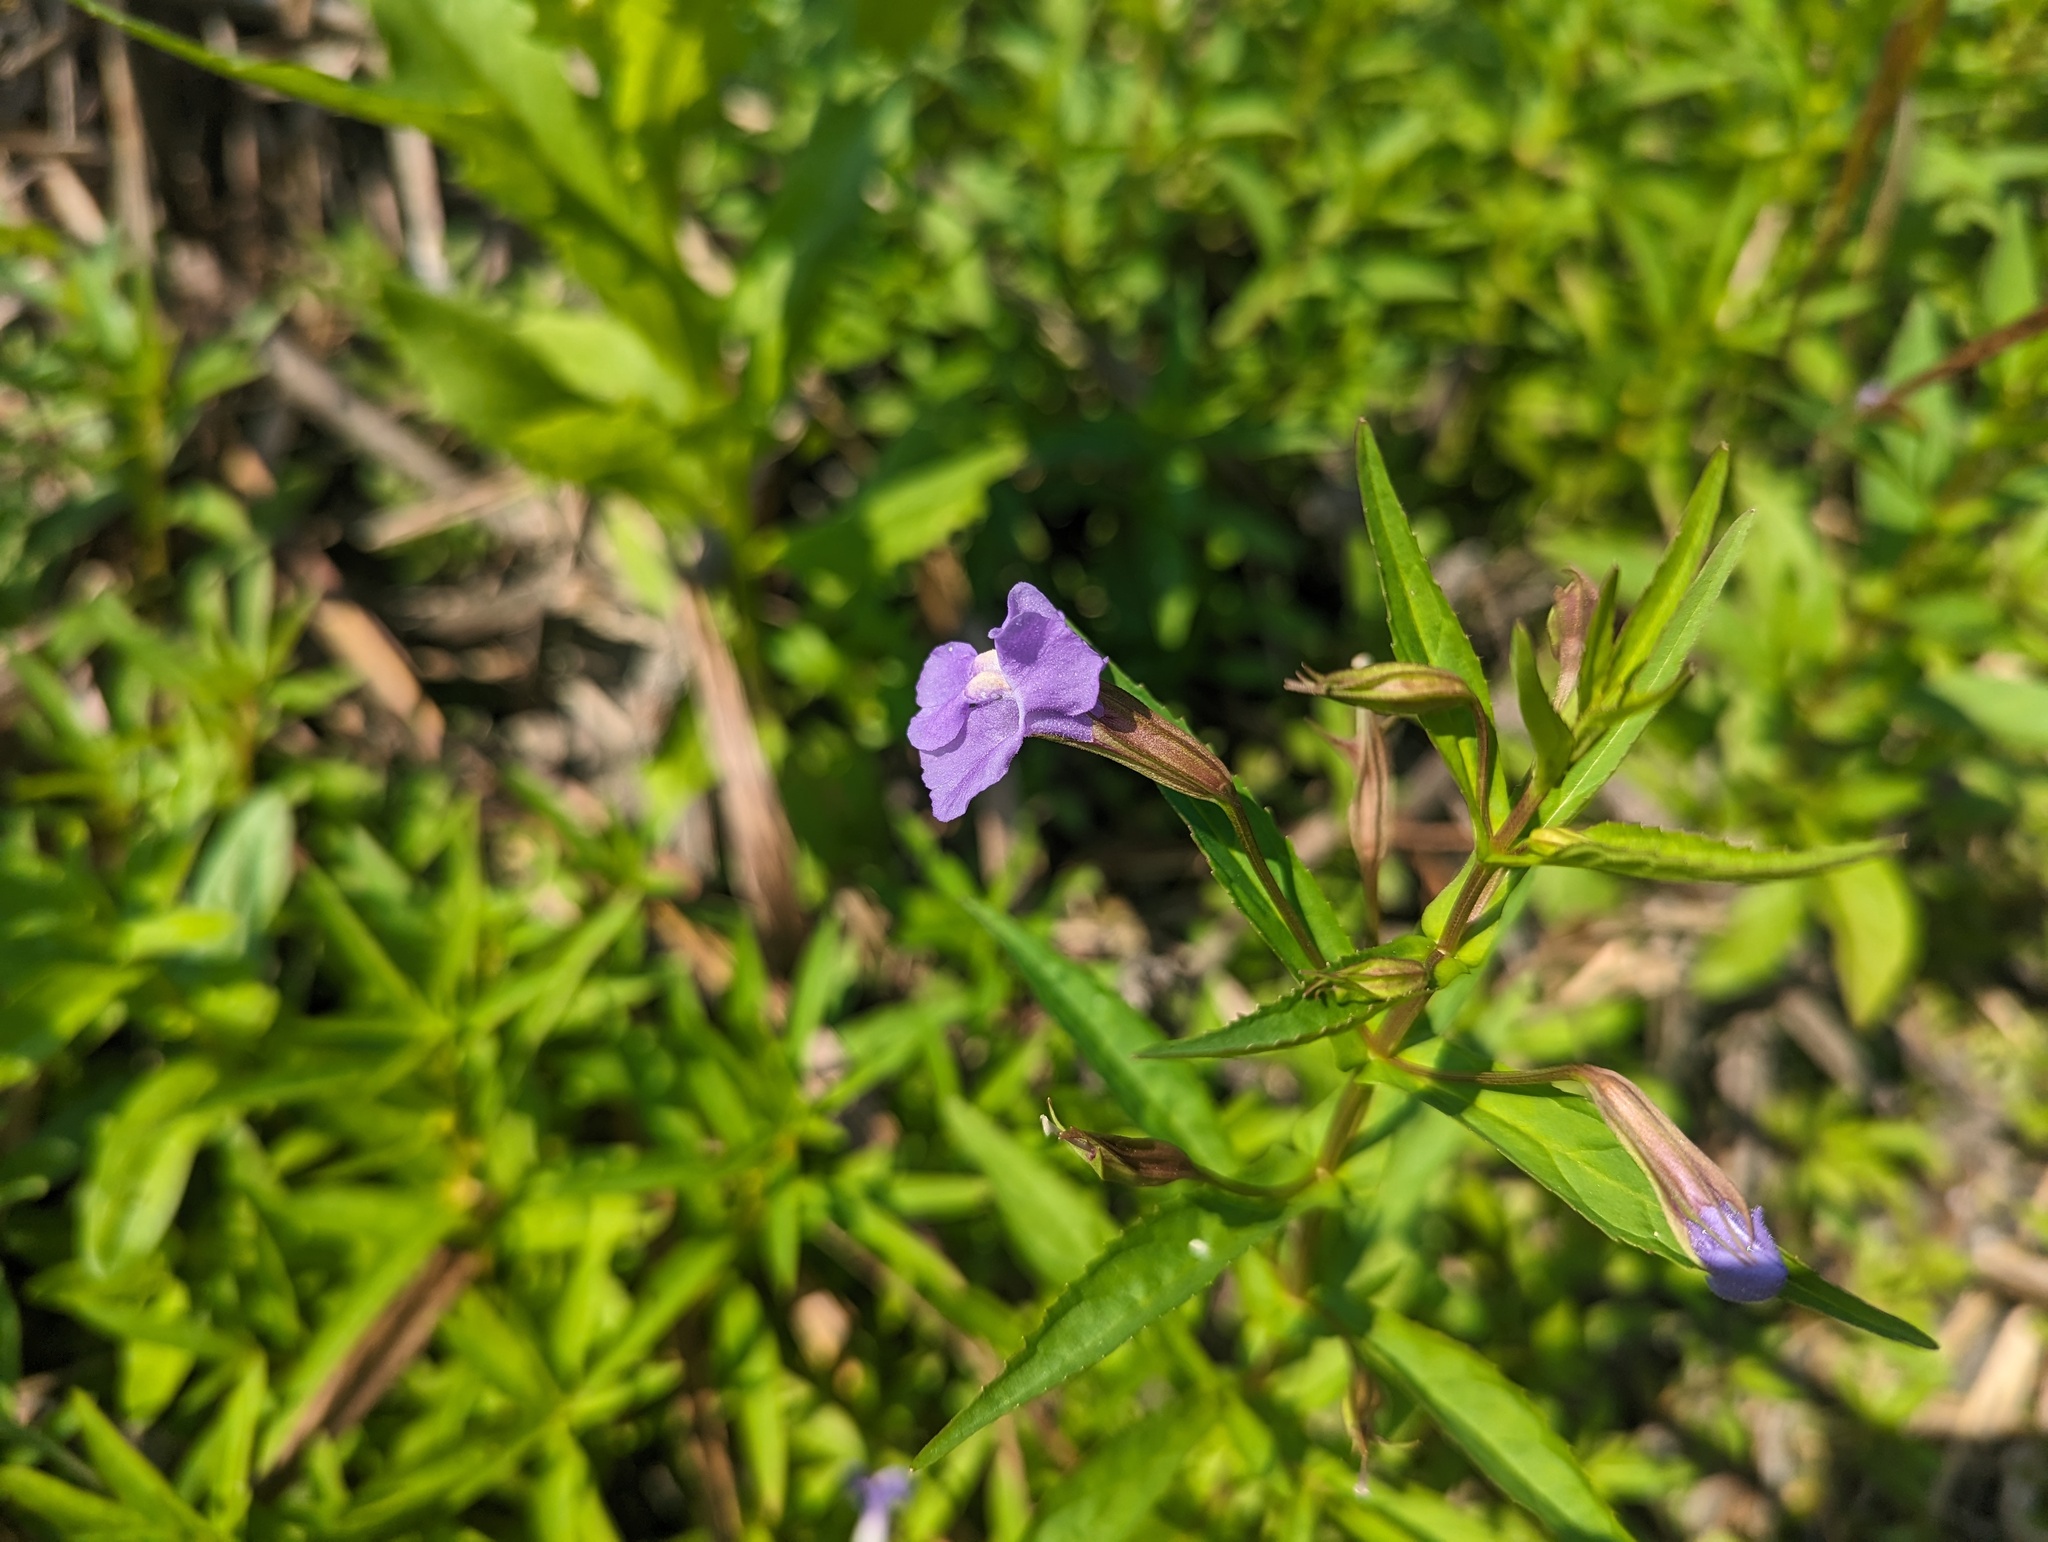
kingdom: Plantae
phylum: Tracheophyta
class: Magnoliopsida
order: Lamiales
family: Phrymaceae
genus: Mimulus
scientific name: Mimulus ringens
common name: Allegheny monkeyflower
